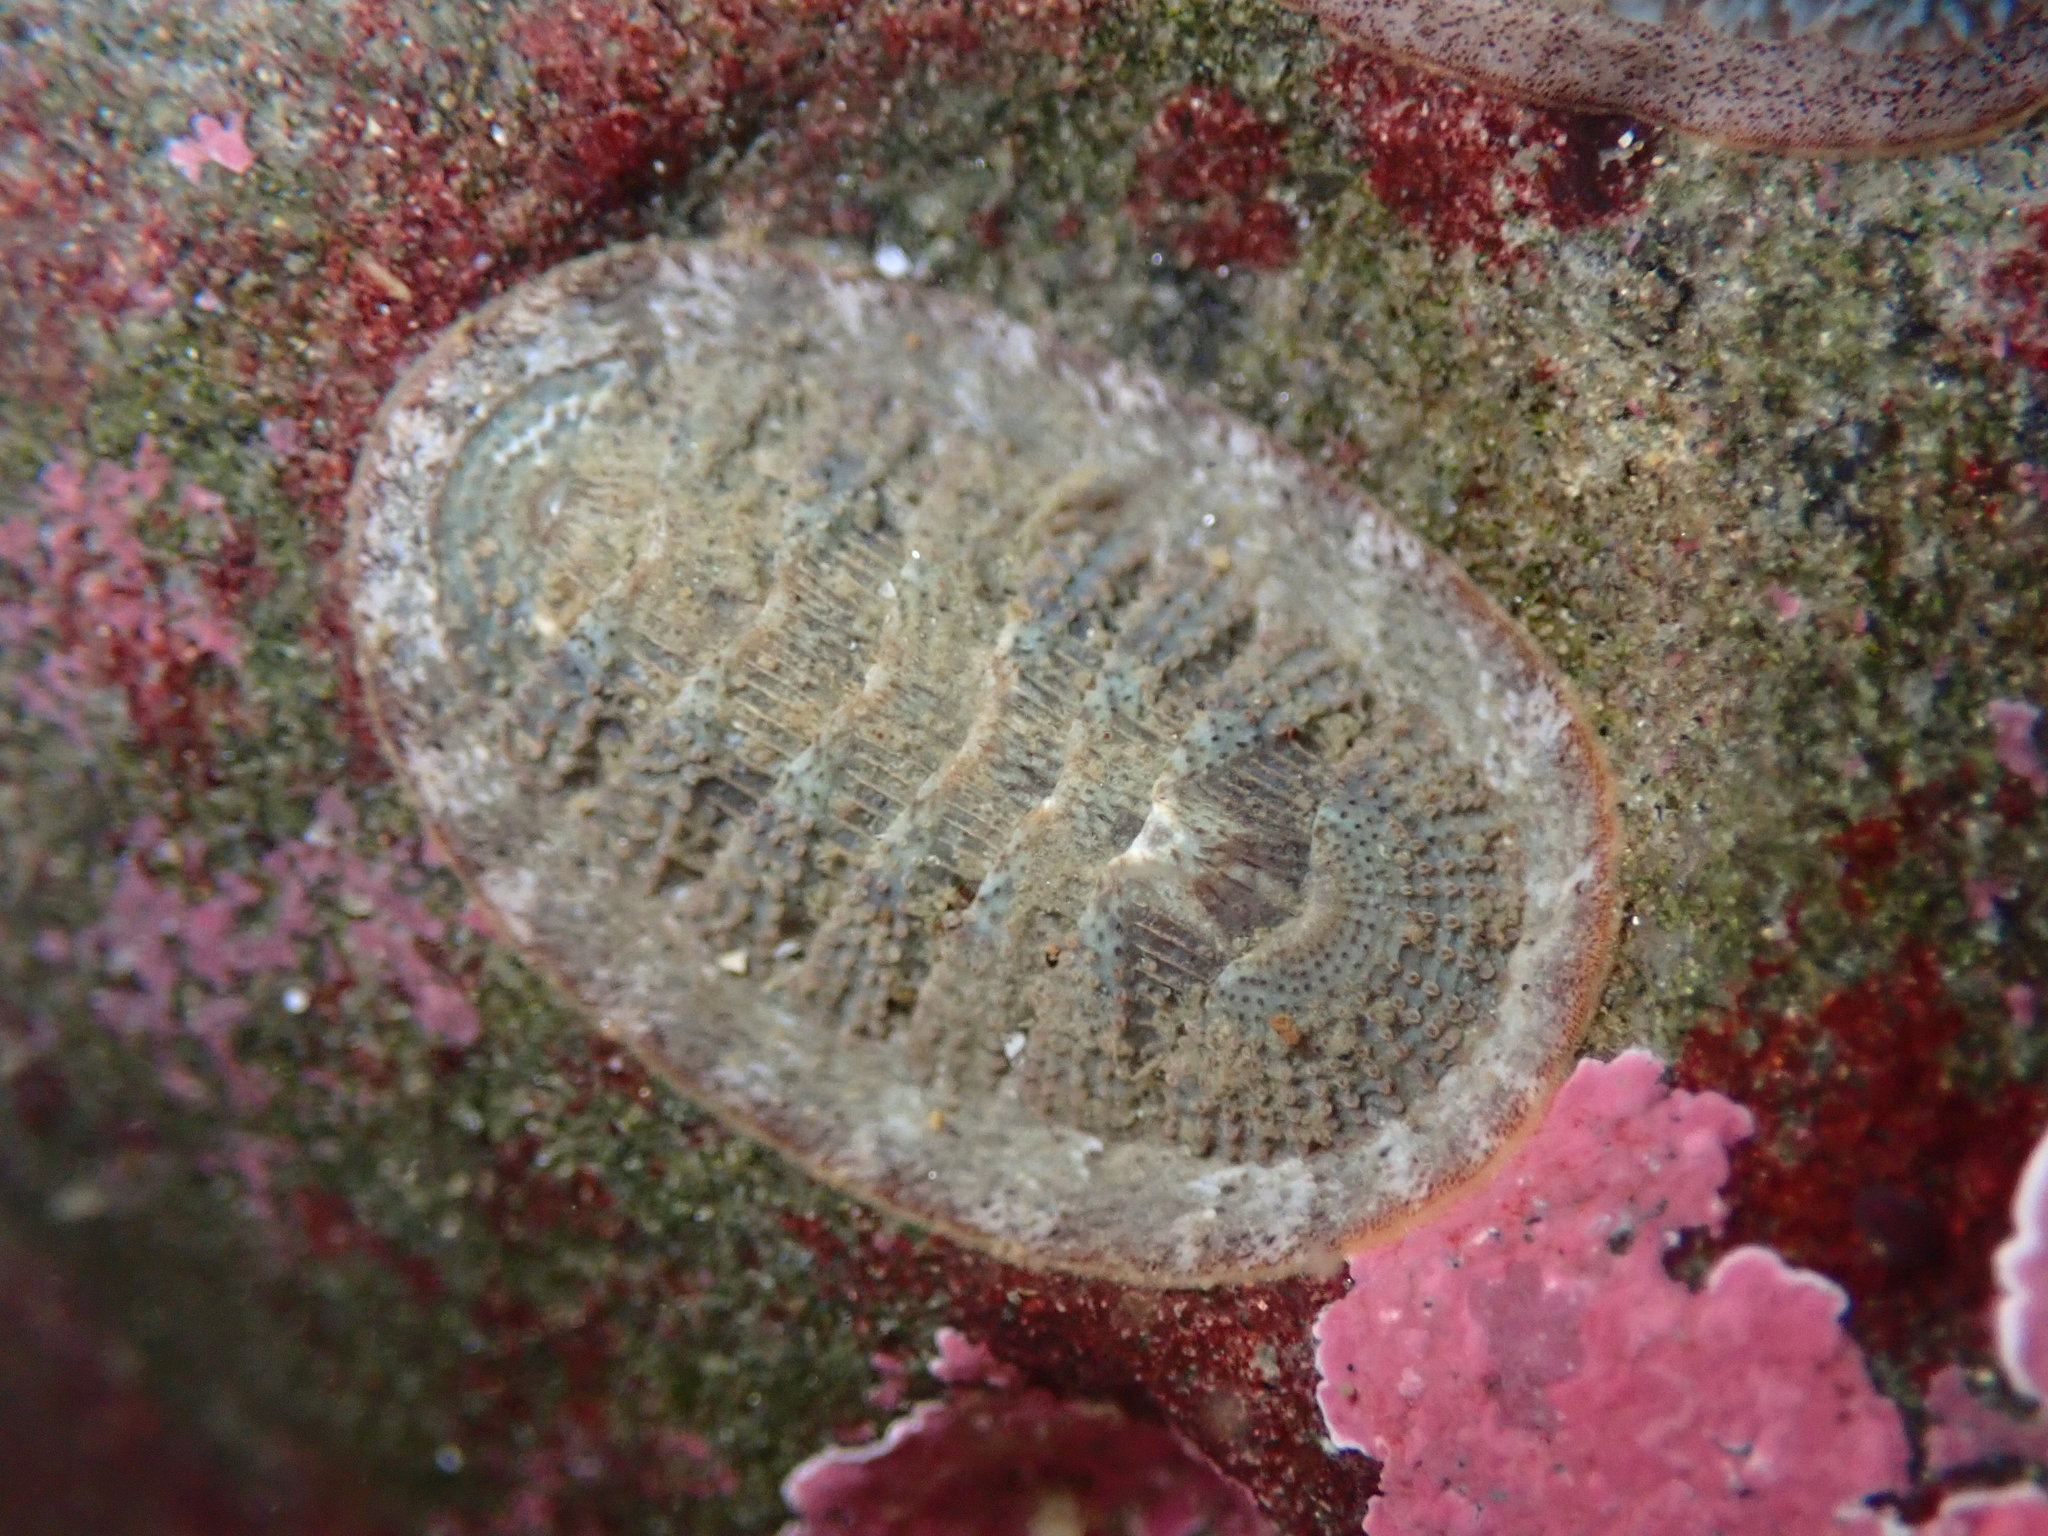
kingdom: Animalia
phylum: Mollusca
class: Polyplacophora
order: Chitonida
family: Ischnochitonidae
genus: Lepidozona
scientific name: Lepidozona cooperi
